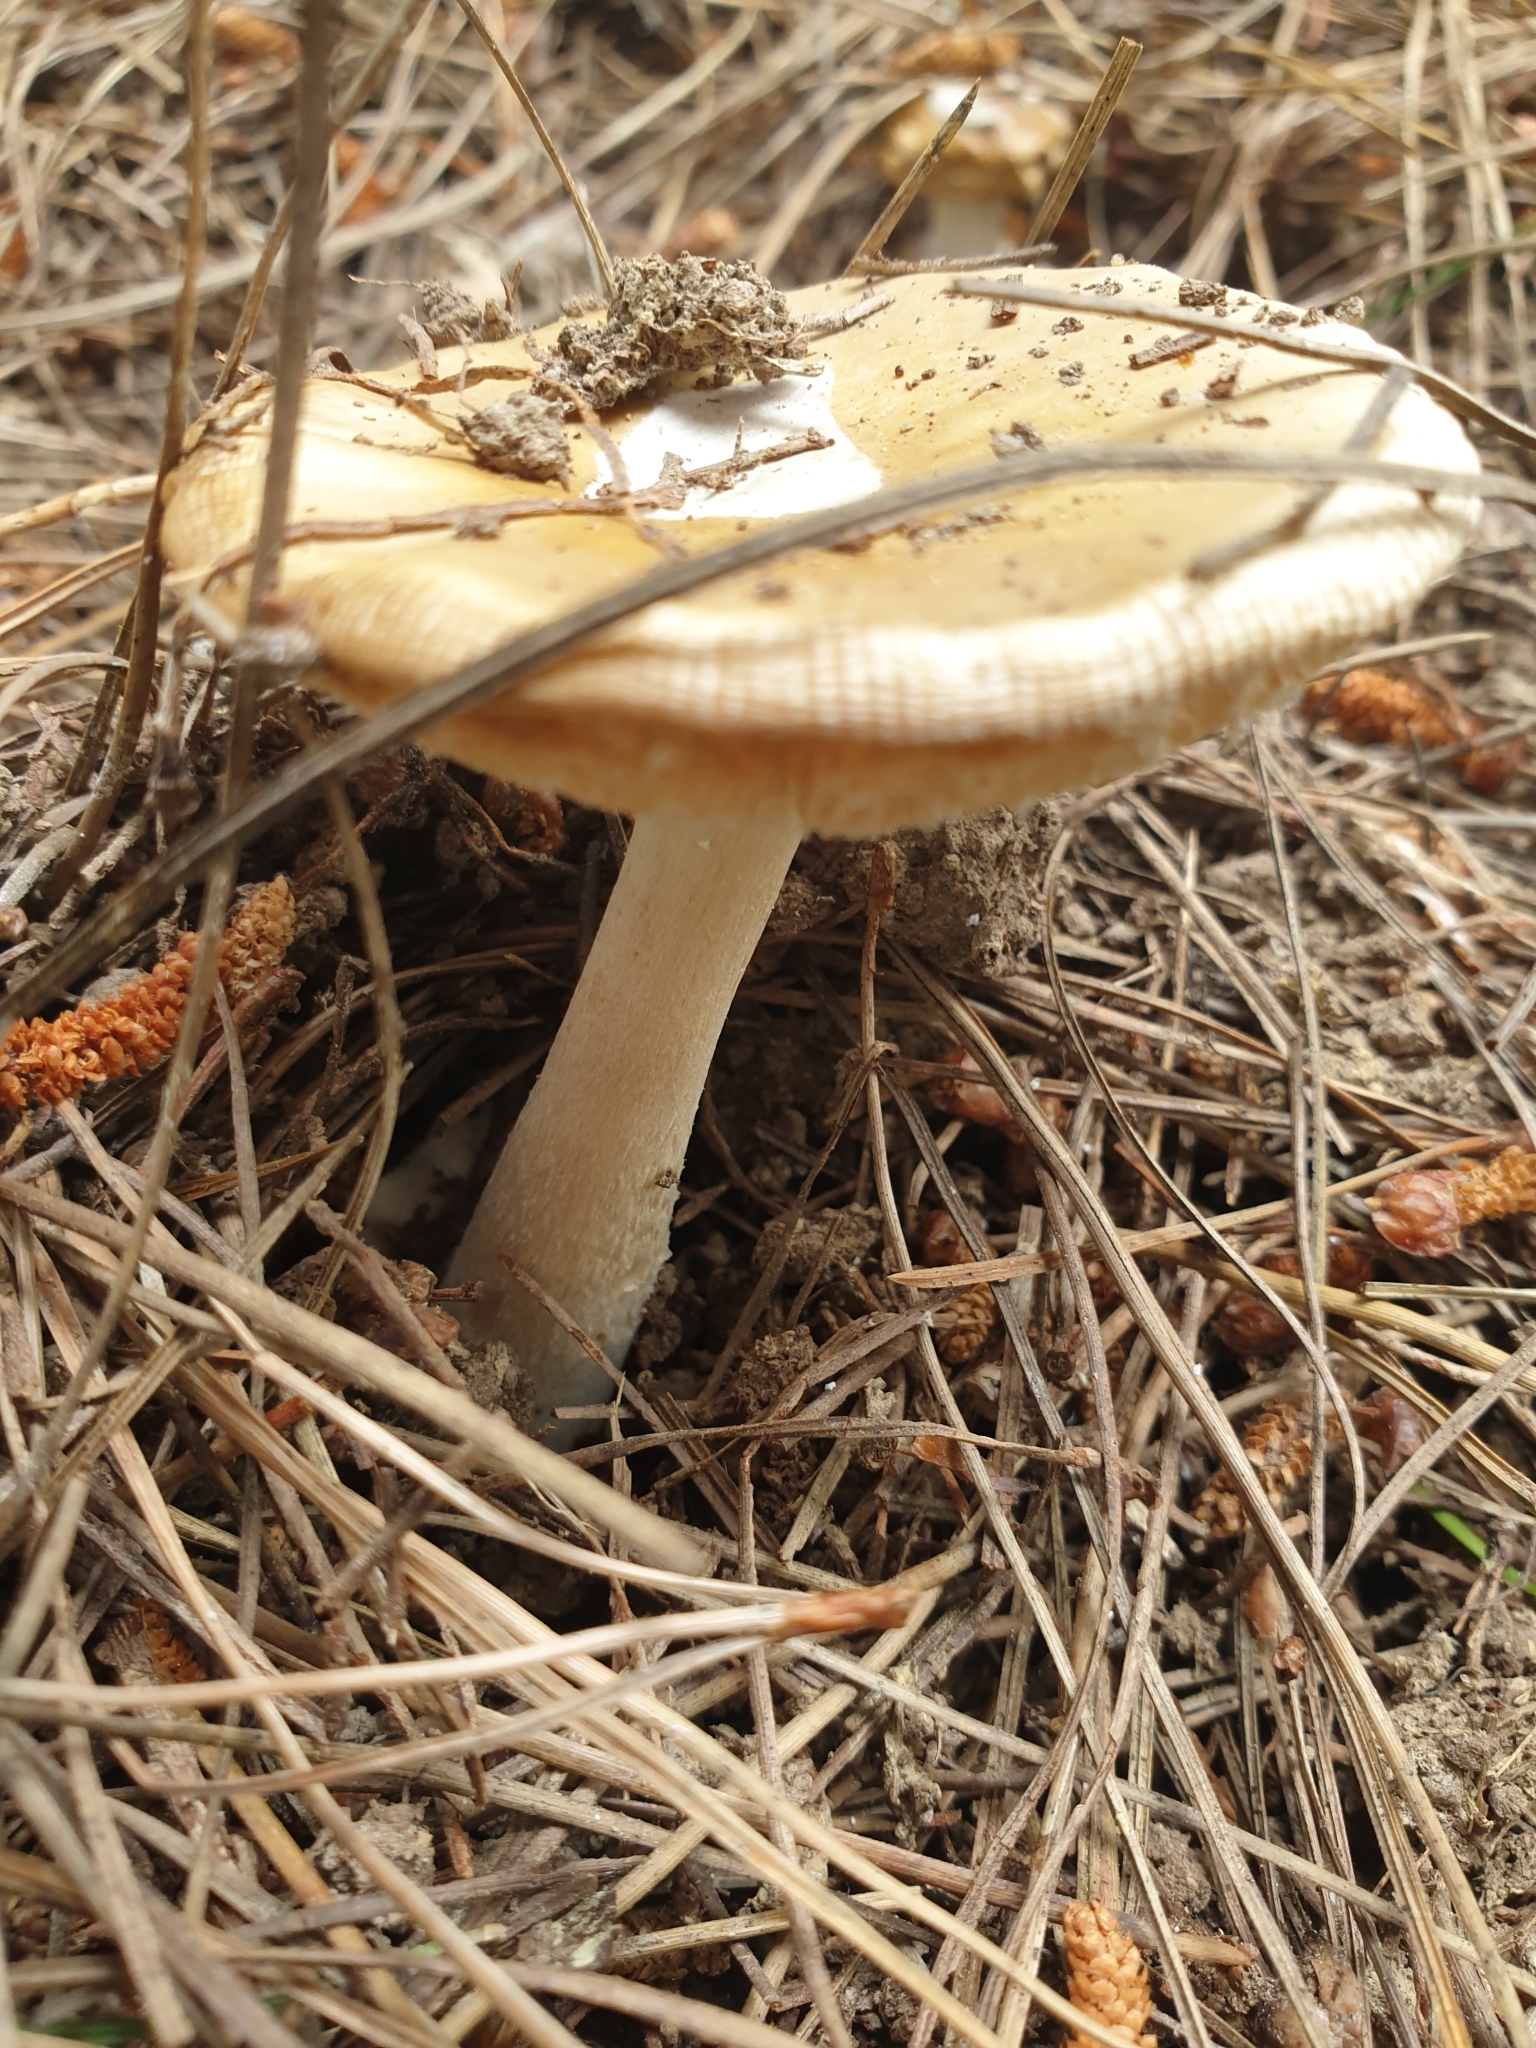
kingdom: Fungi
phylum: Basidiomycota
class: Agaricomycetes
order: Agaricales
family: Amanitaceae
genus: Amanita
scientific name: Amanita gemmata
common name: Jewelled amanita
